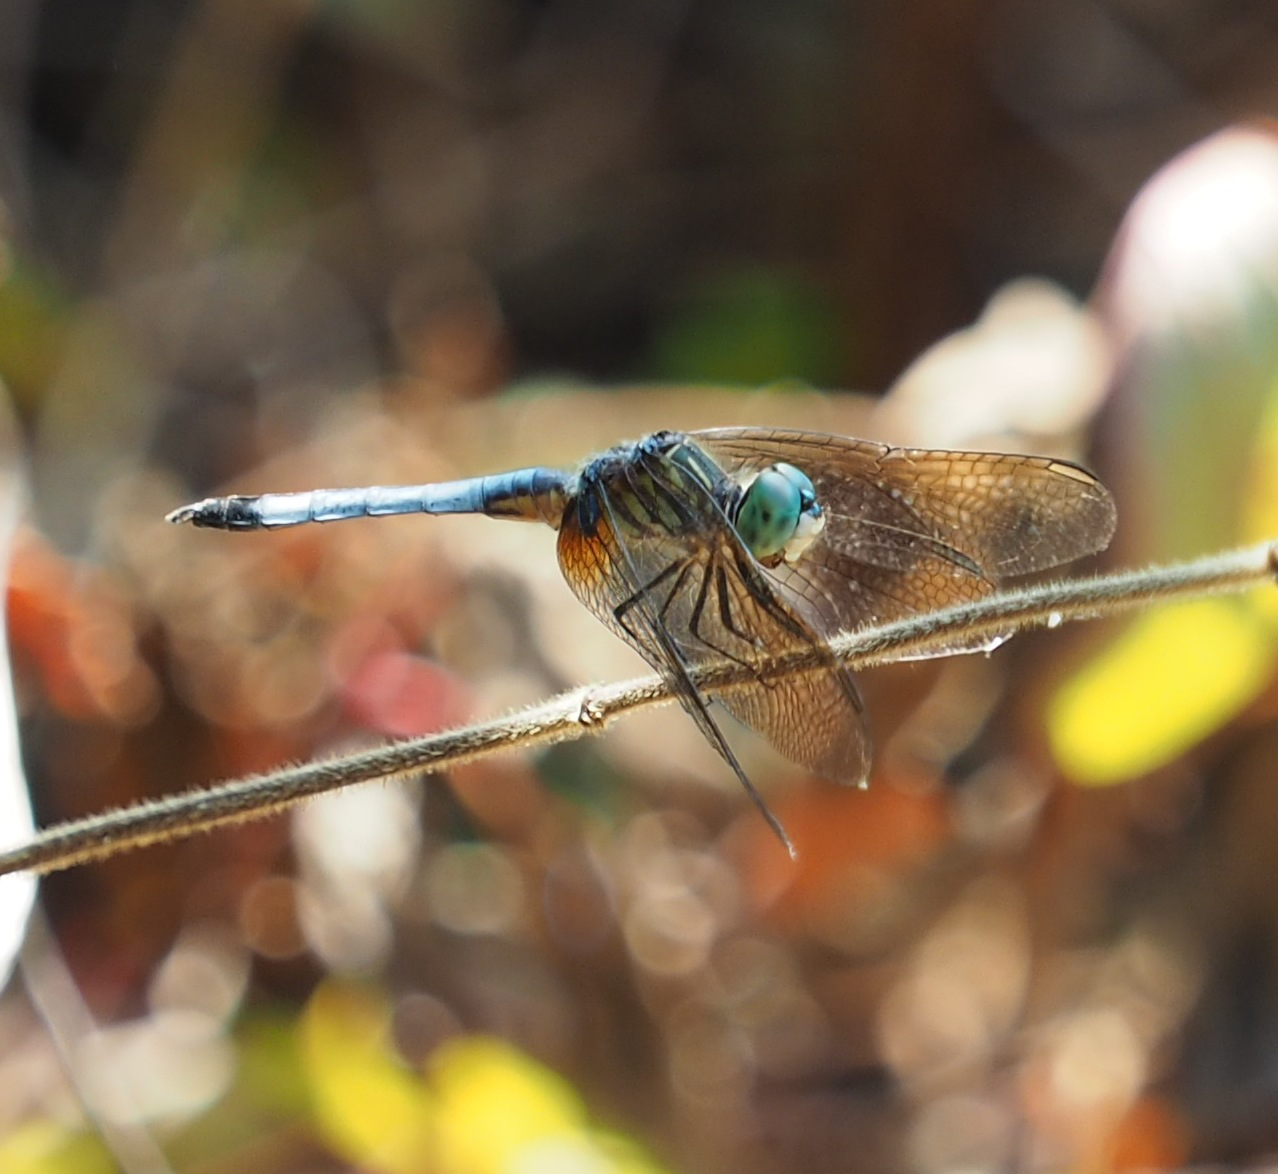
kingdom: Animalia
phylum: Arthropoda
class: Insecta
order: Odonata
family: Libellulidae
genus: Pachydiplax
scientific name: Pachydiplax longipennis
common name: Blue dasher
